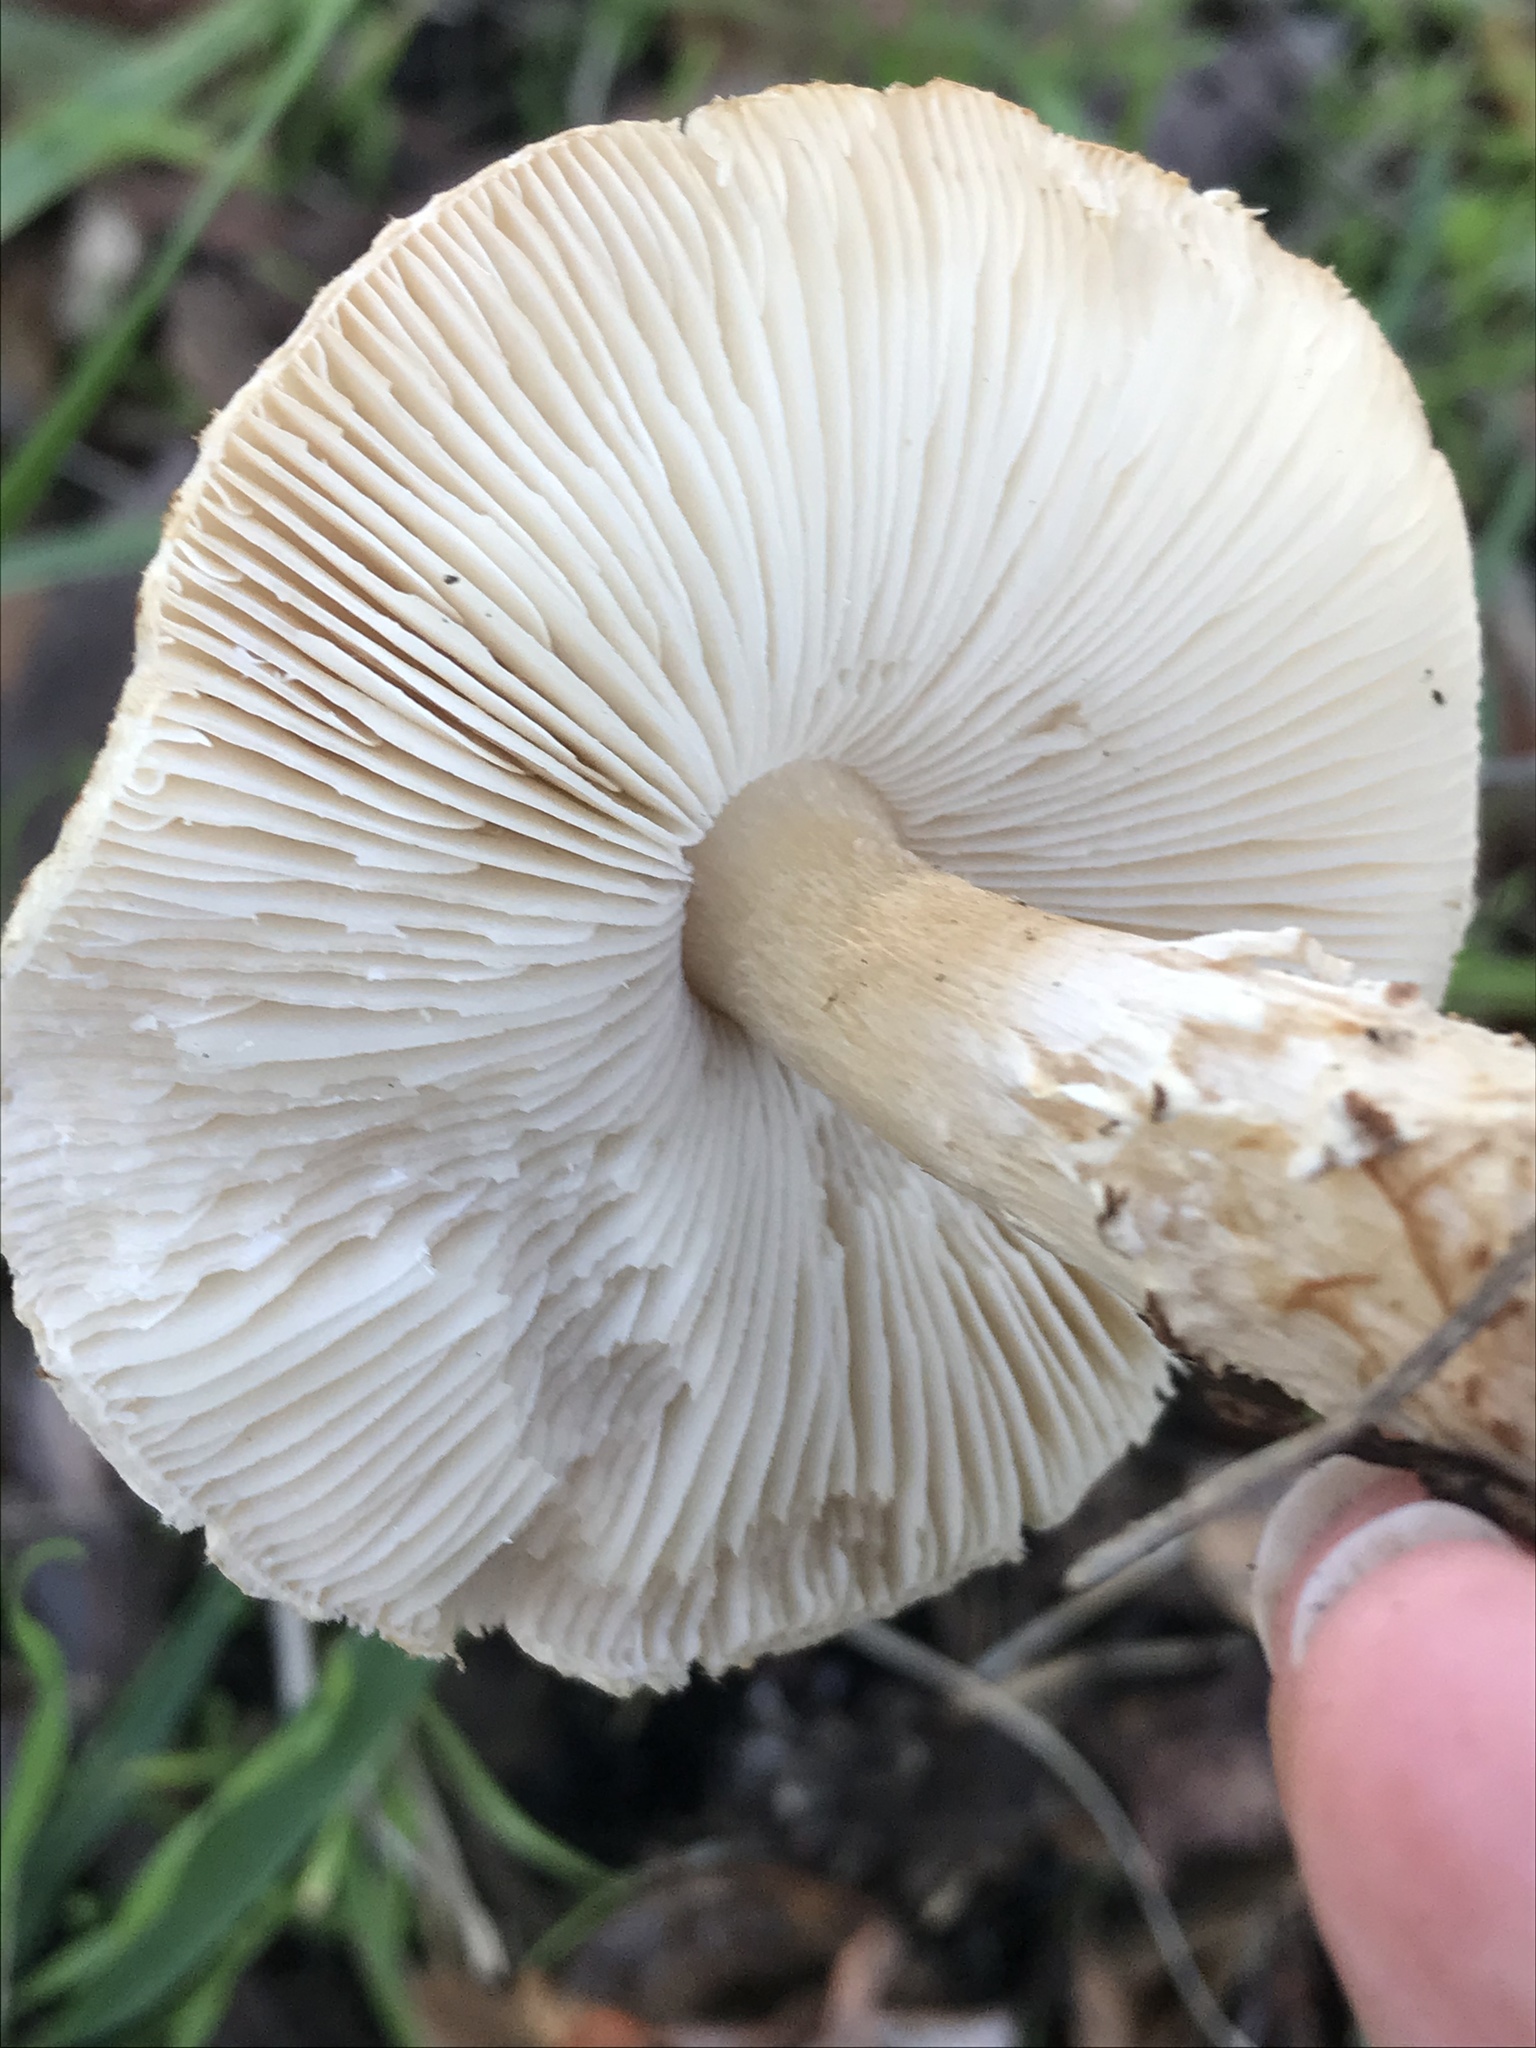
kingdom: Fungi
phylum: Basidiomycota
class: Agaricomycetes
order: Agaricales
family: Agaricaceae
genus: Lepiota
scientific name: Lepiota spheniscispora
